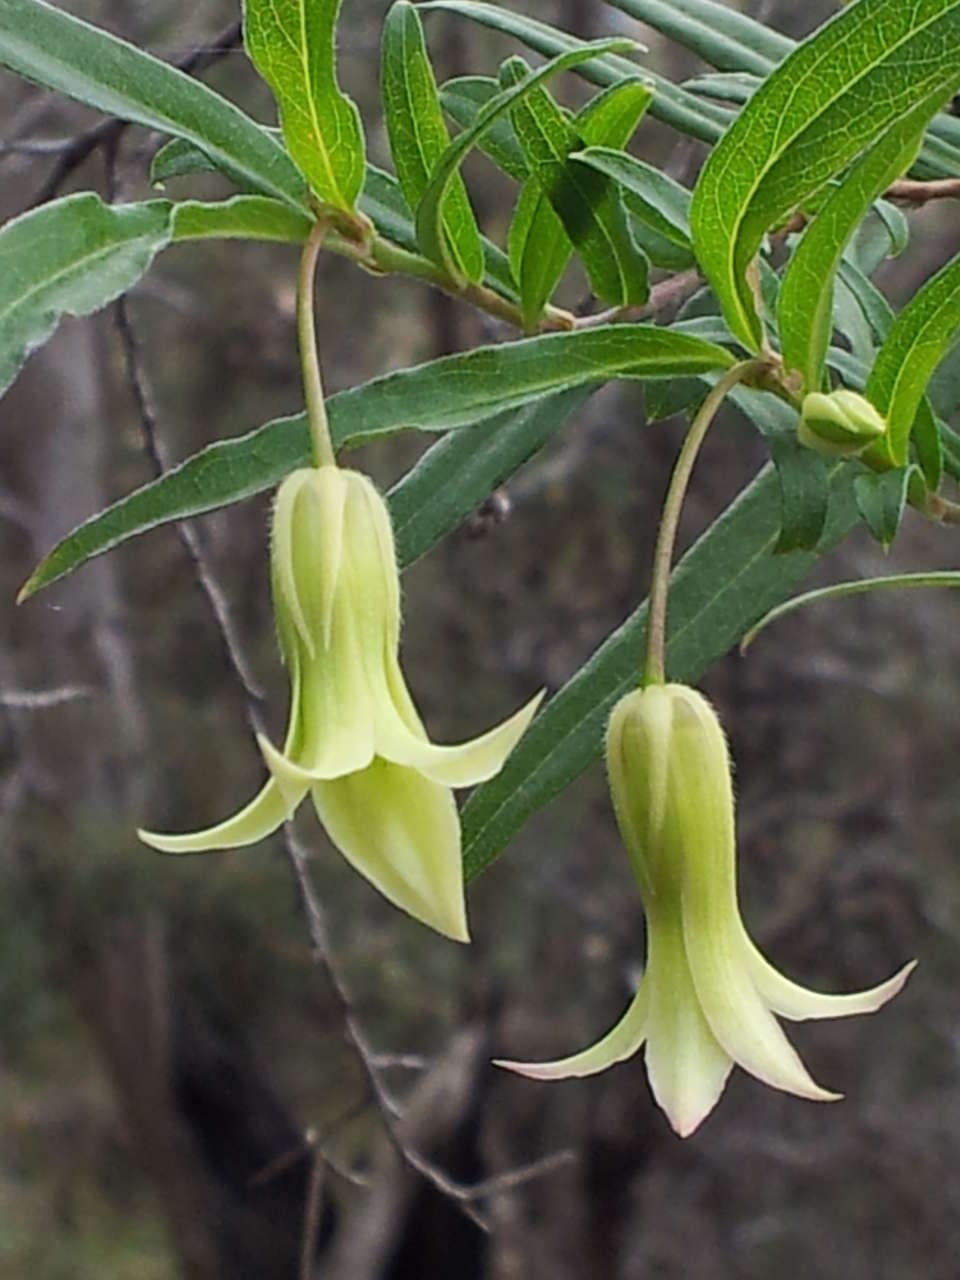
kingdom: Plantae
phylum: Tracheophyta
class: Magnoliopsida
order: Apiales
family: Pittosporaceae
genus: Billardiera
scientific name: Billardiera mutabilis
